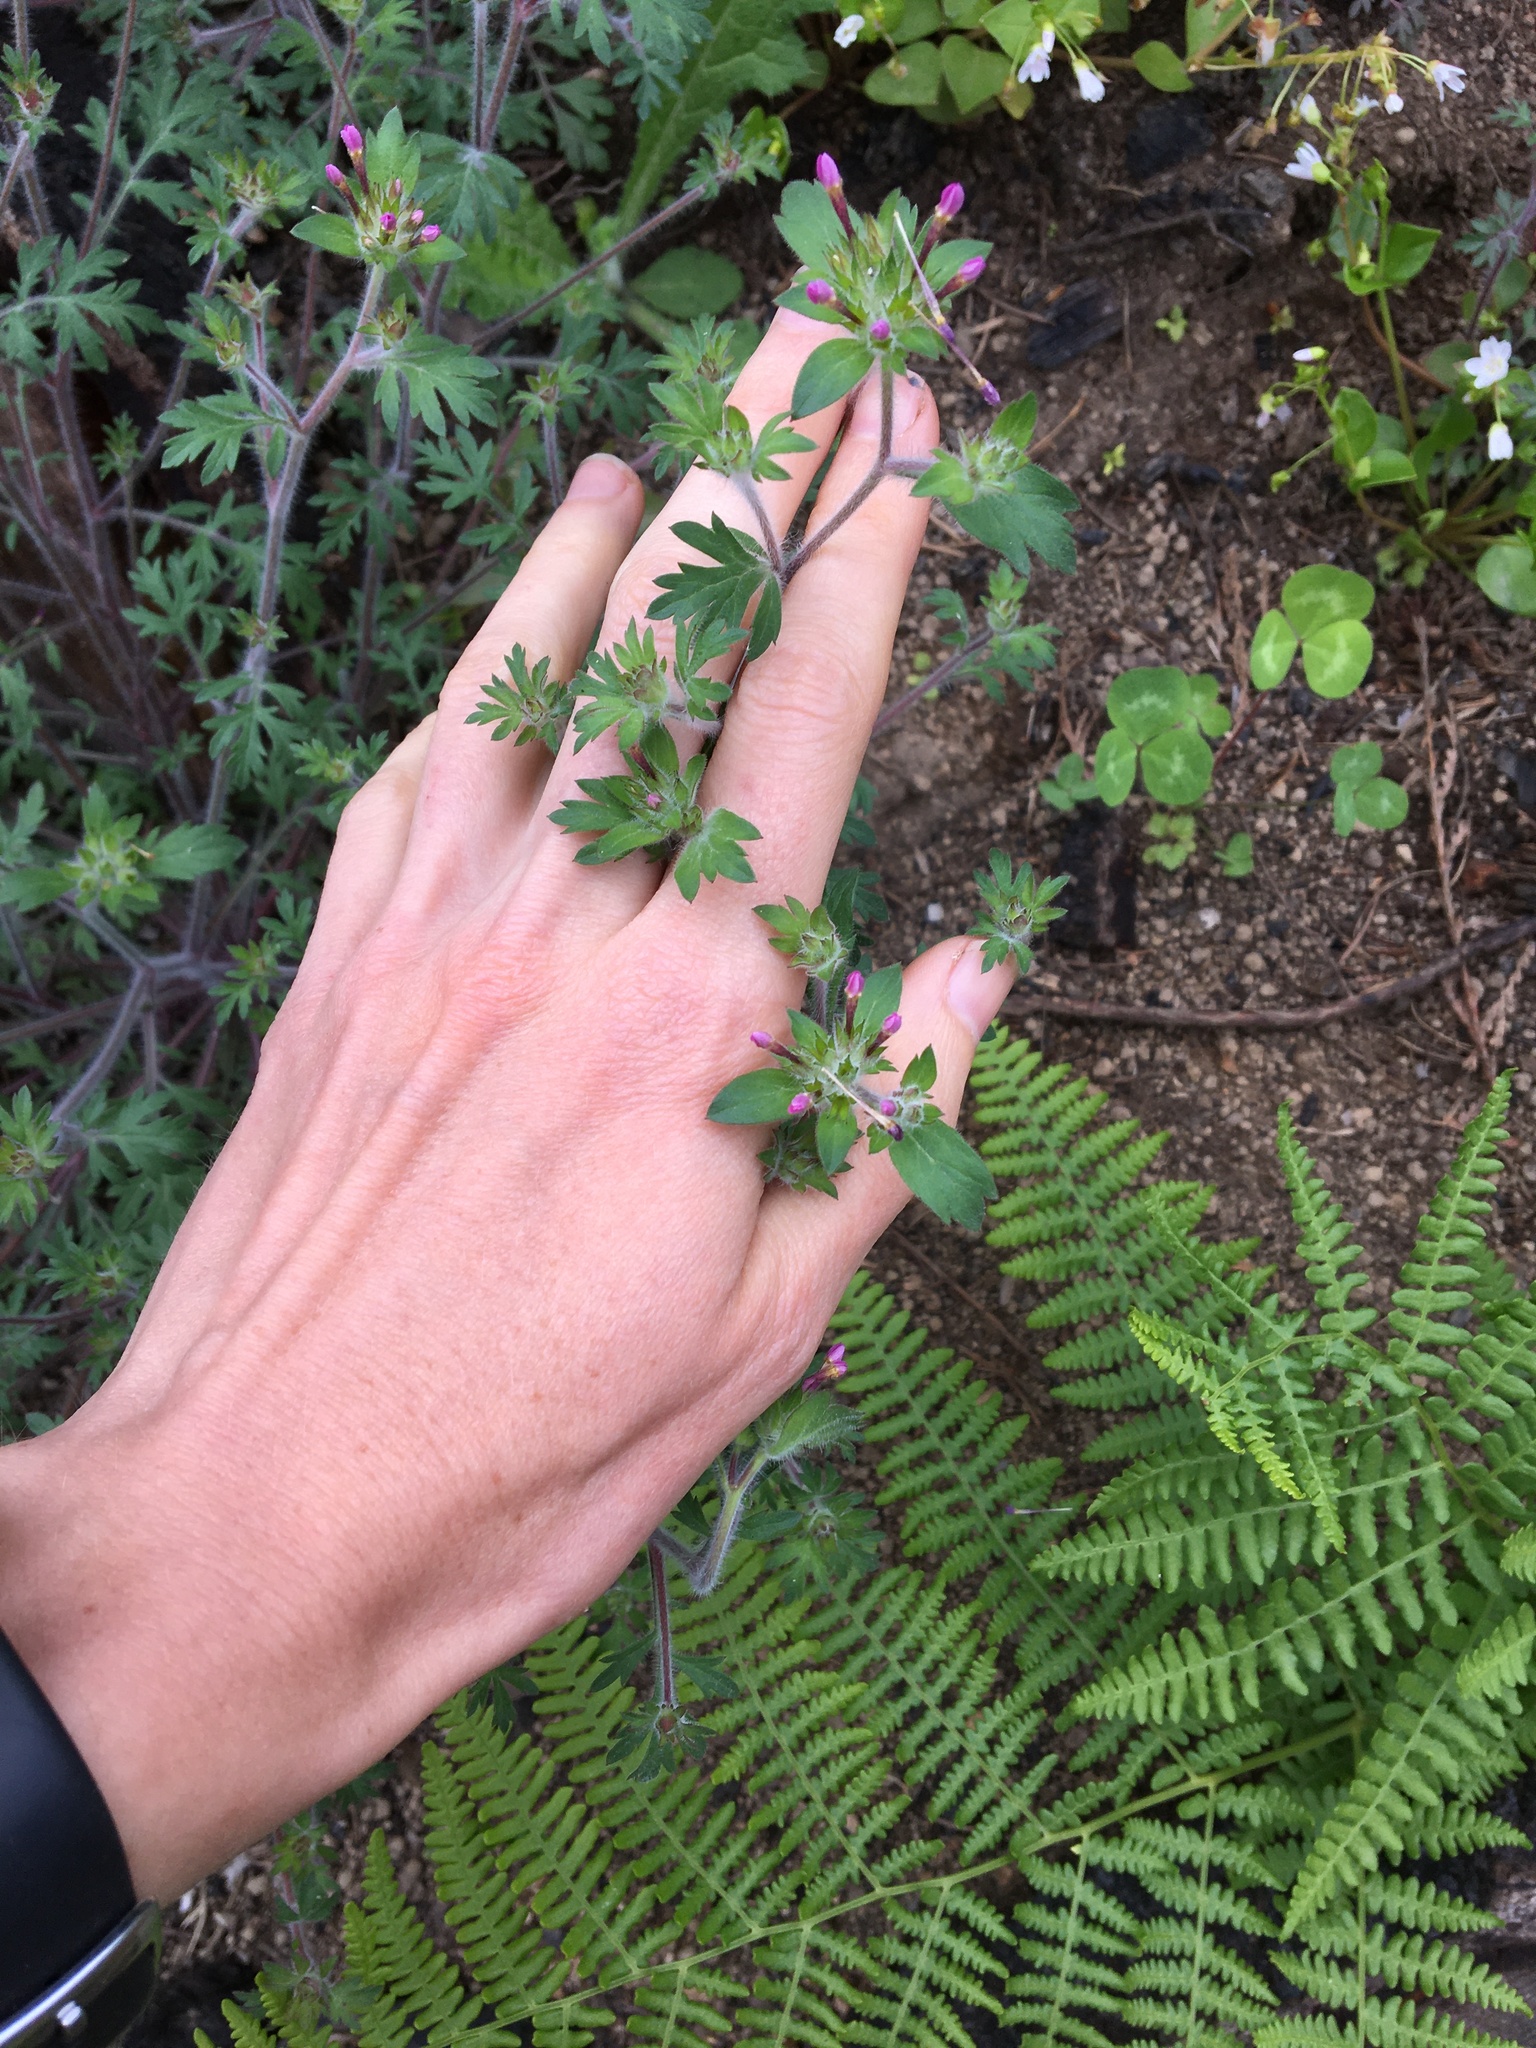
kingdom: Plantae
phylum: Tracheophyta
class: Magnoliopsida
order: Ericales
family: Polemoniaceae
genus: Collomia
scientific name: Collomia heterophylla
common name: Variable-leaved collomia
